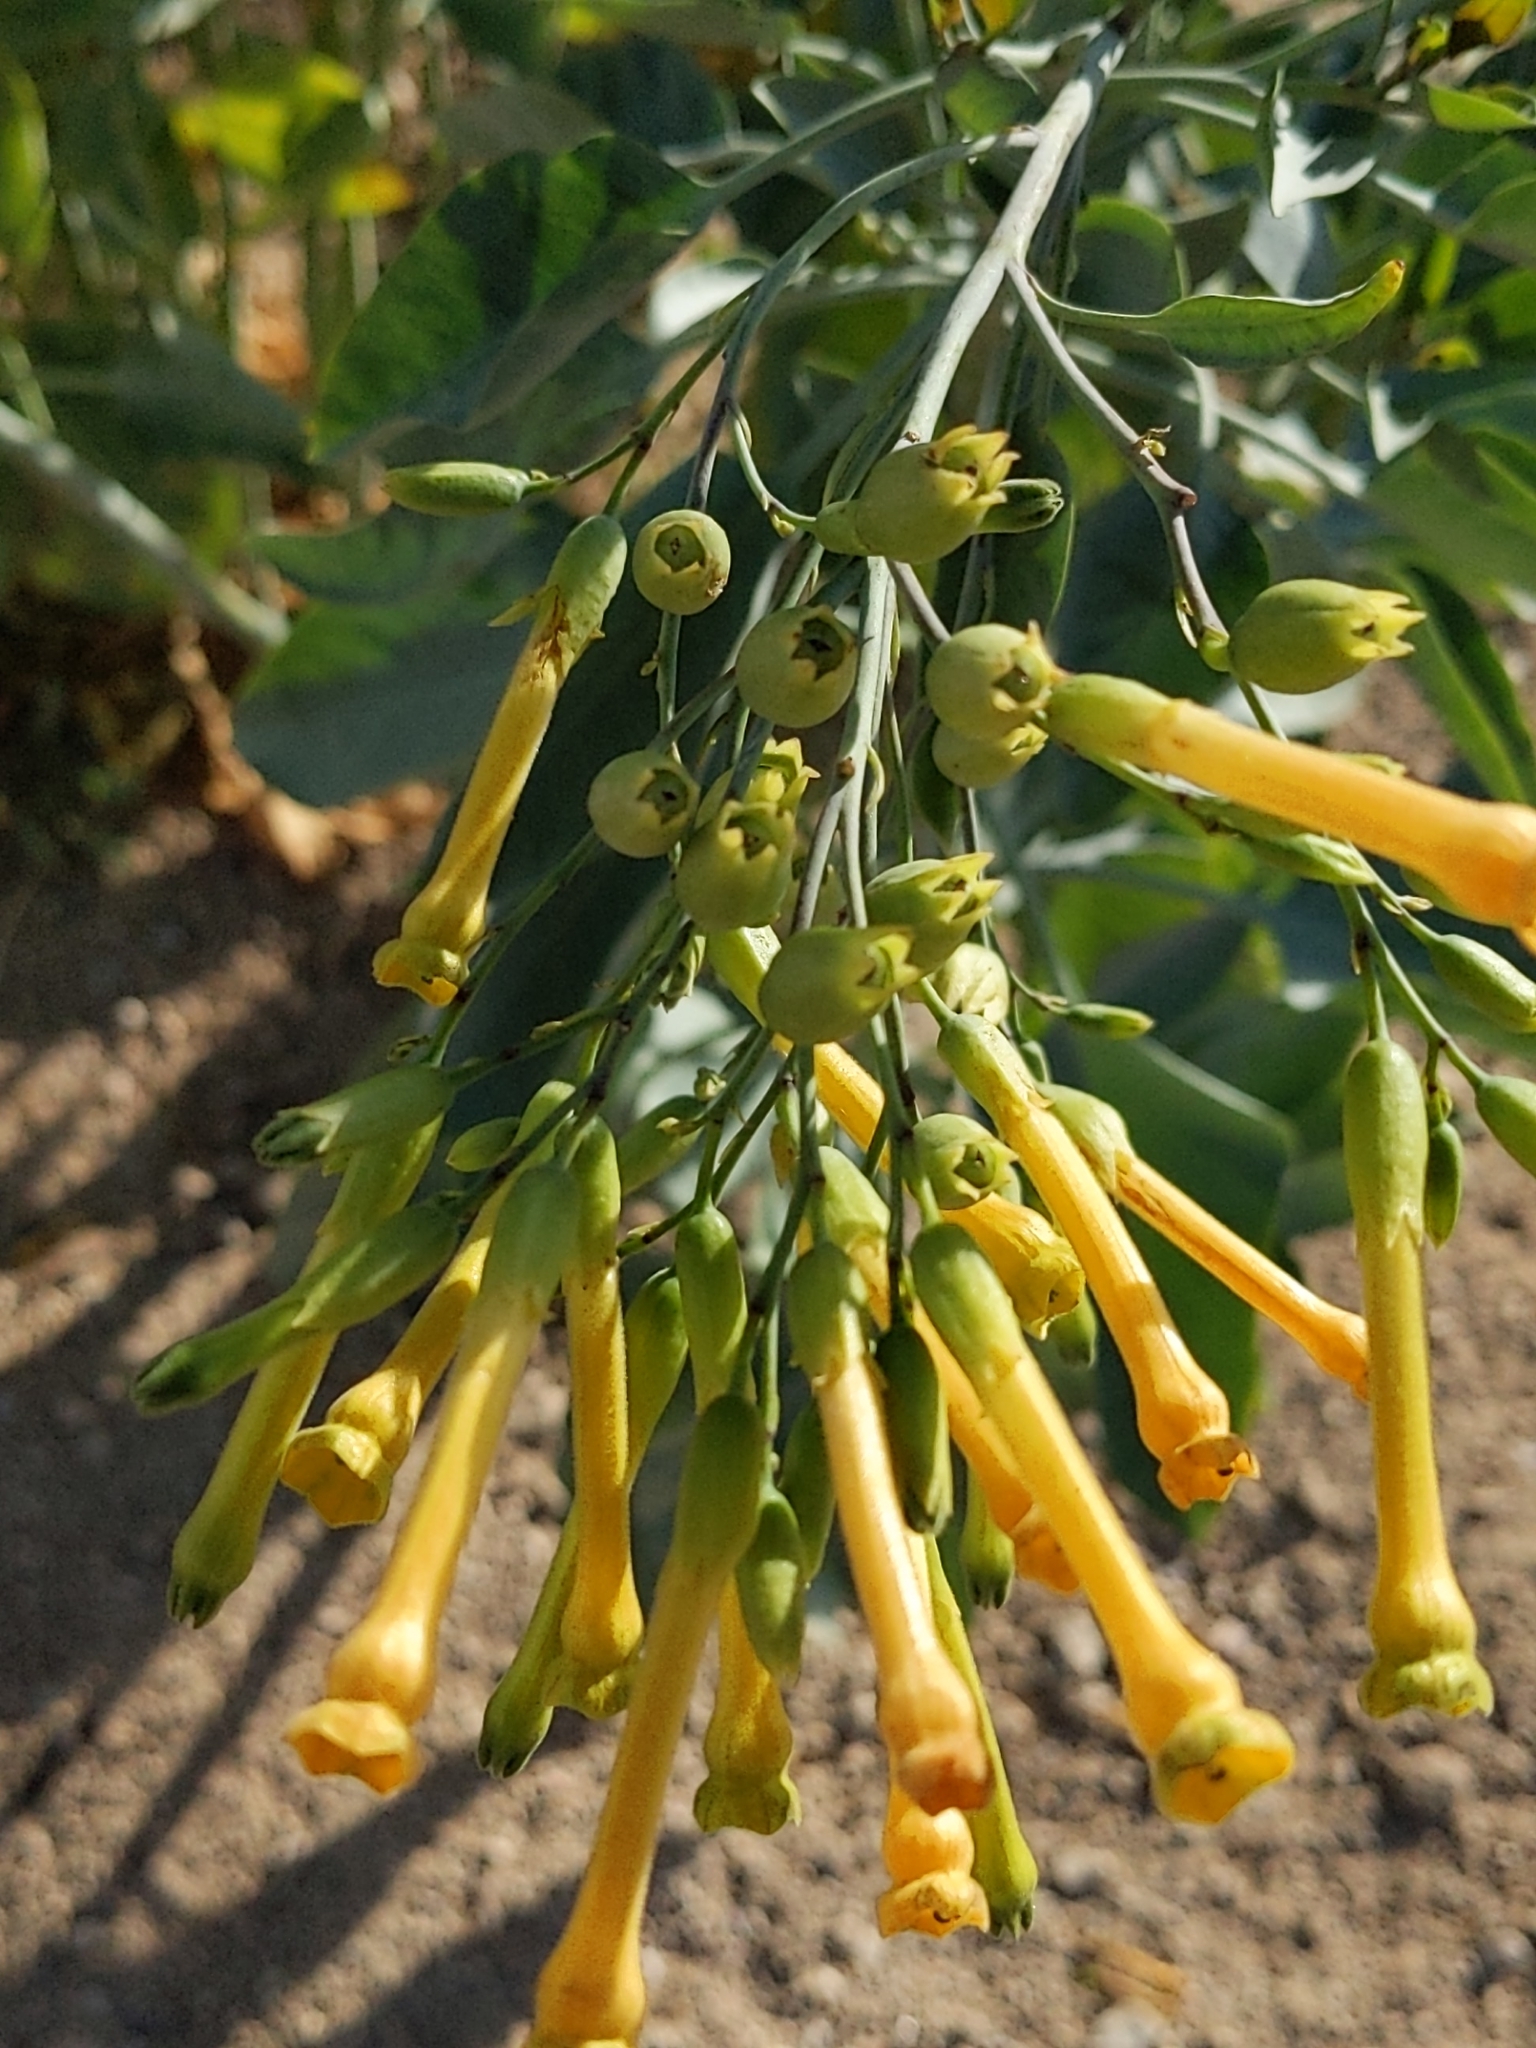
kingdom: Plantae
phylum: Tracheophyta
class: Magnoliopsida
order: Solanales
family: Solanaceae
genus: Nicotiana
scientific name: Nicotiana glauca
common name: Tree tobacco
